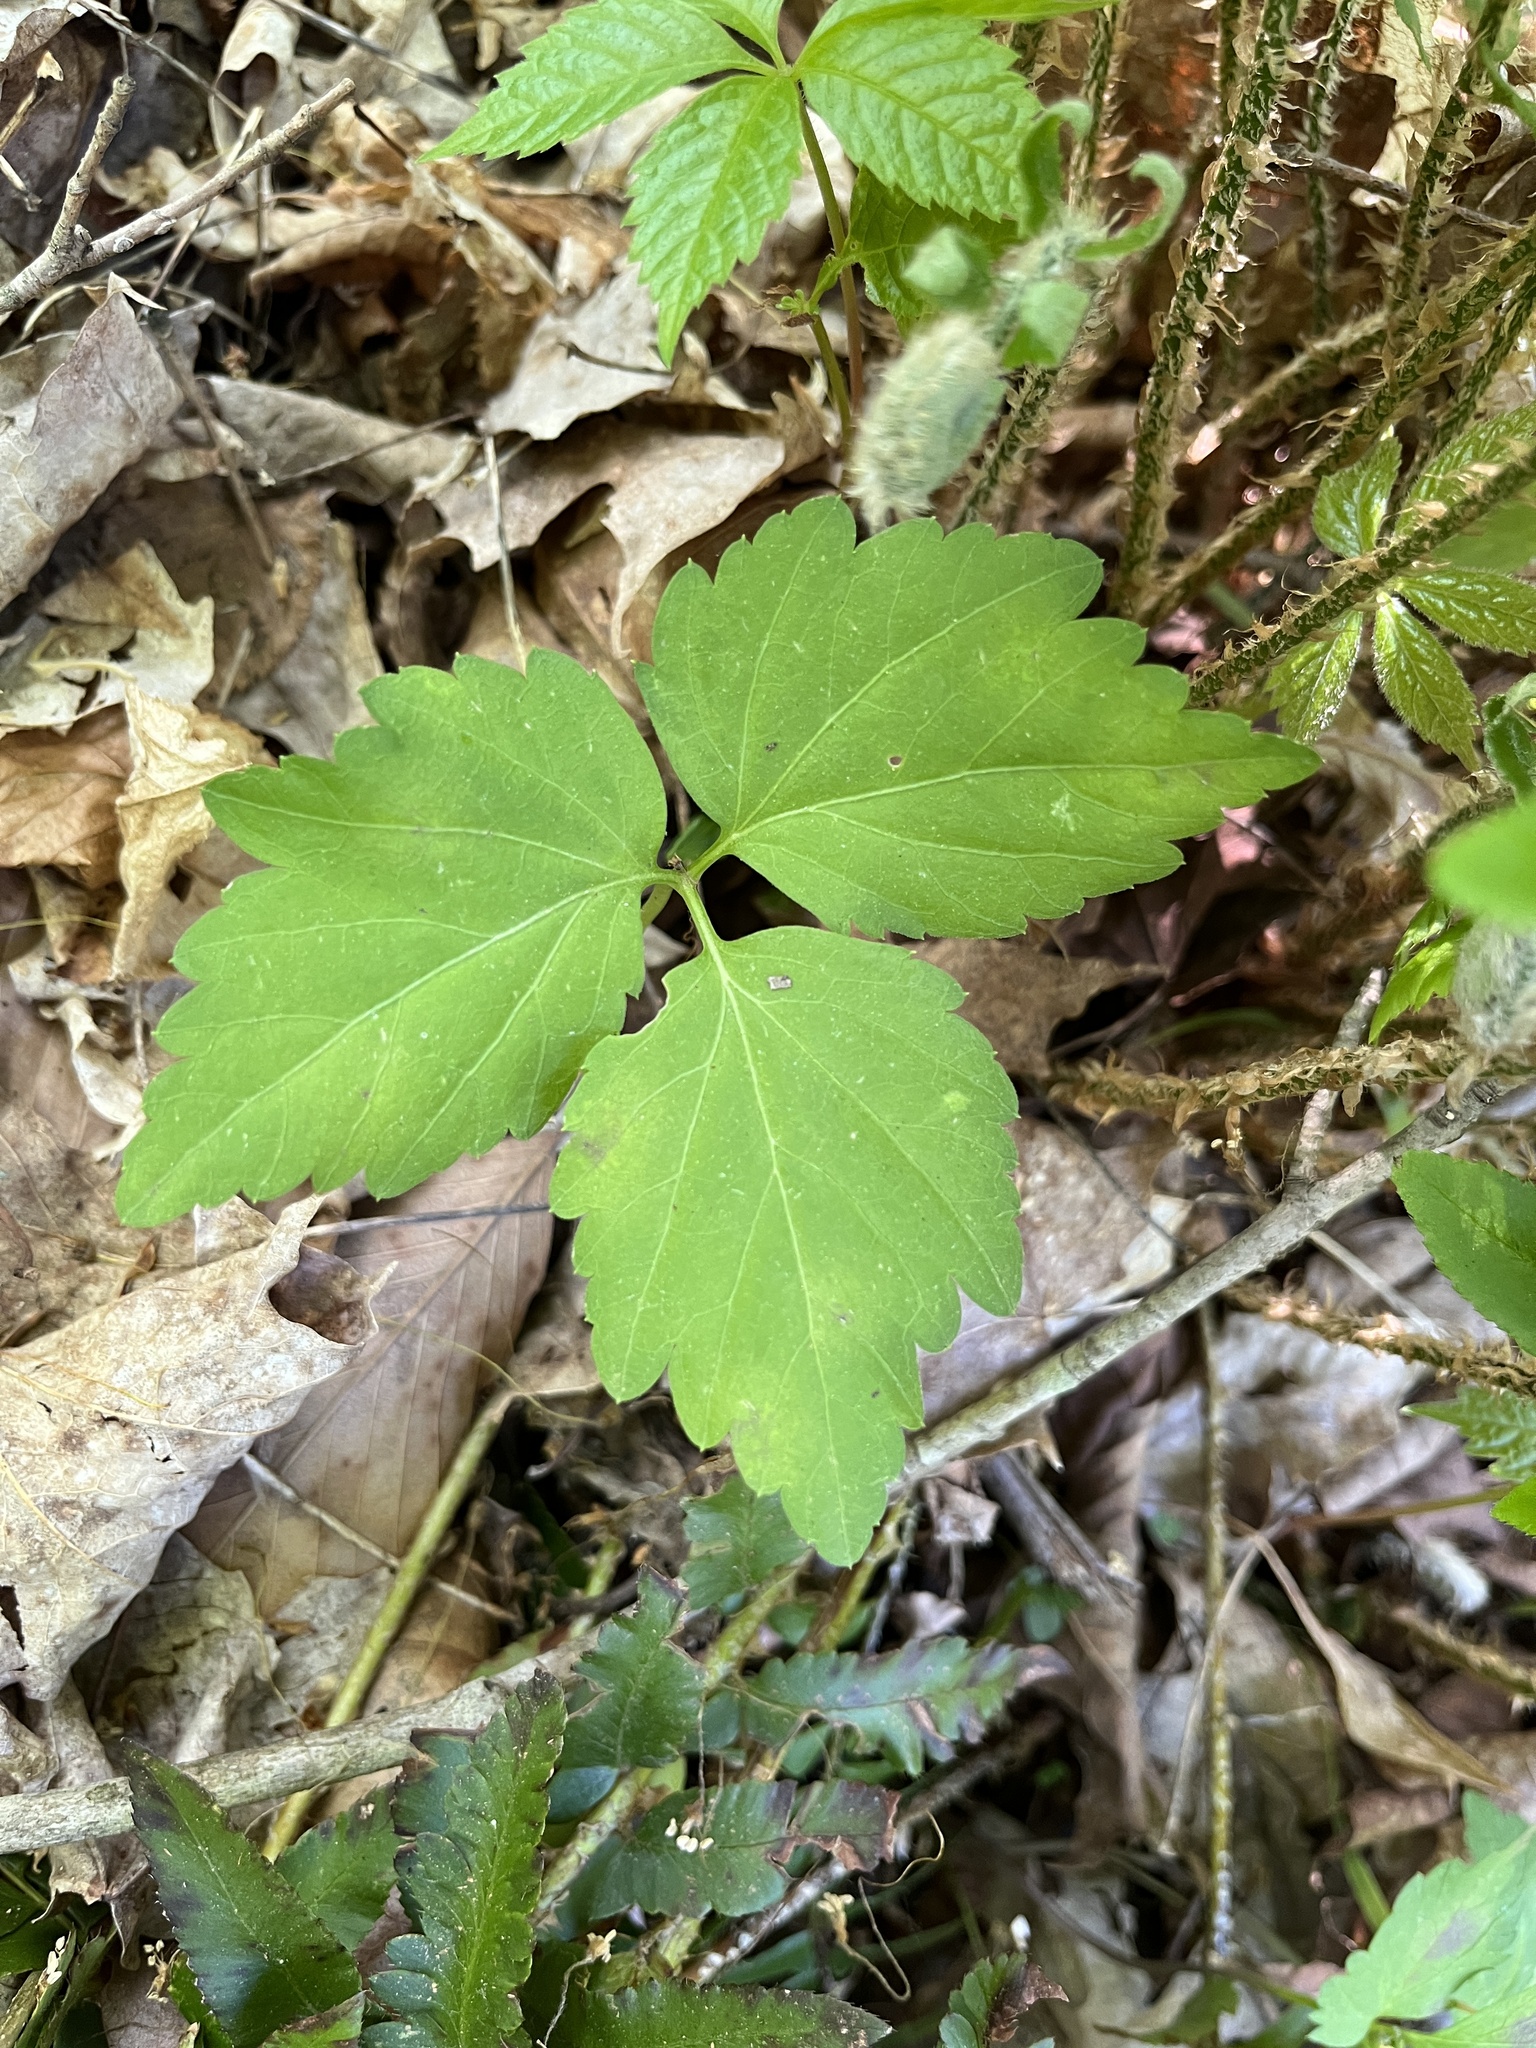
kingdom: Plantae
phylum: Tracheophyta
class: Magnoliopsida
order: Brassicales
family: Brassicaceae
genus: Cardamine
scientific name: Cardamine diphylla
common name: Broad-leaved toothwort
